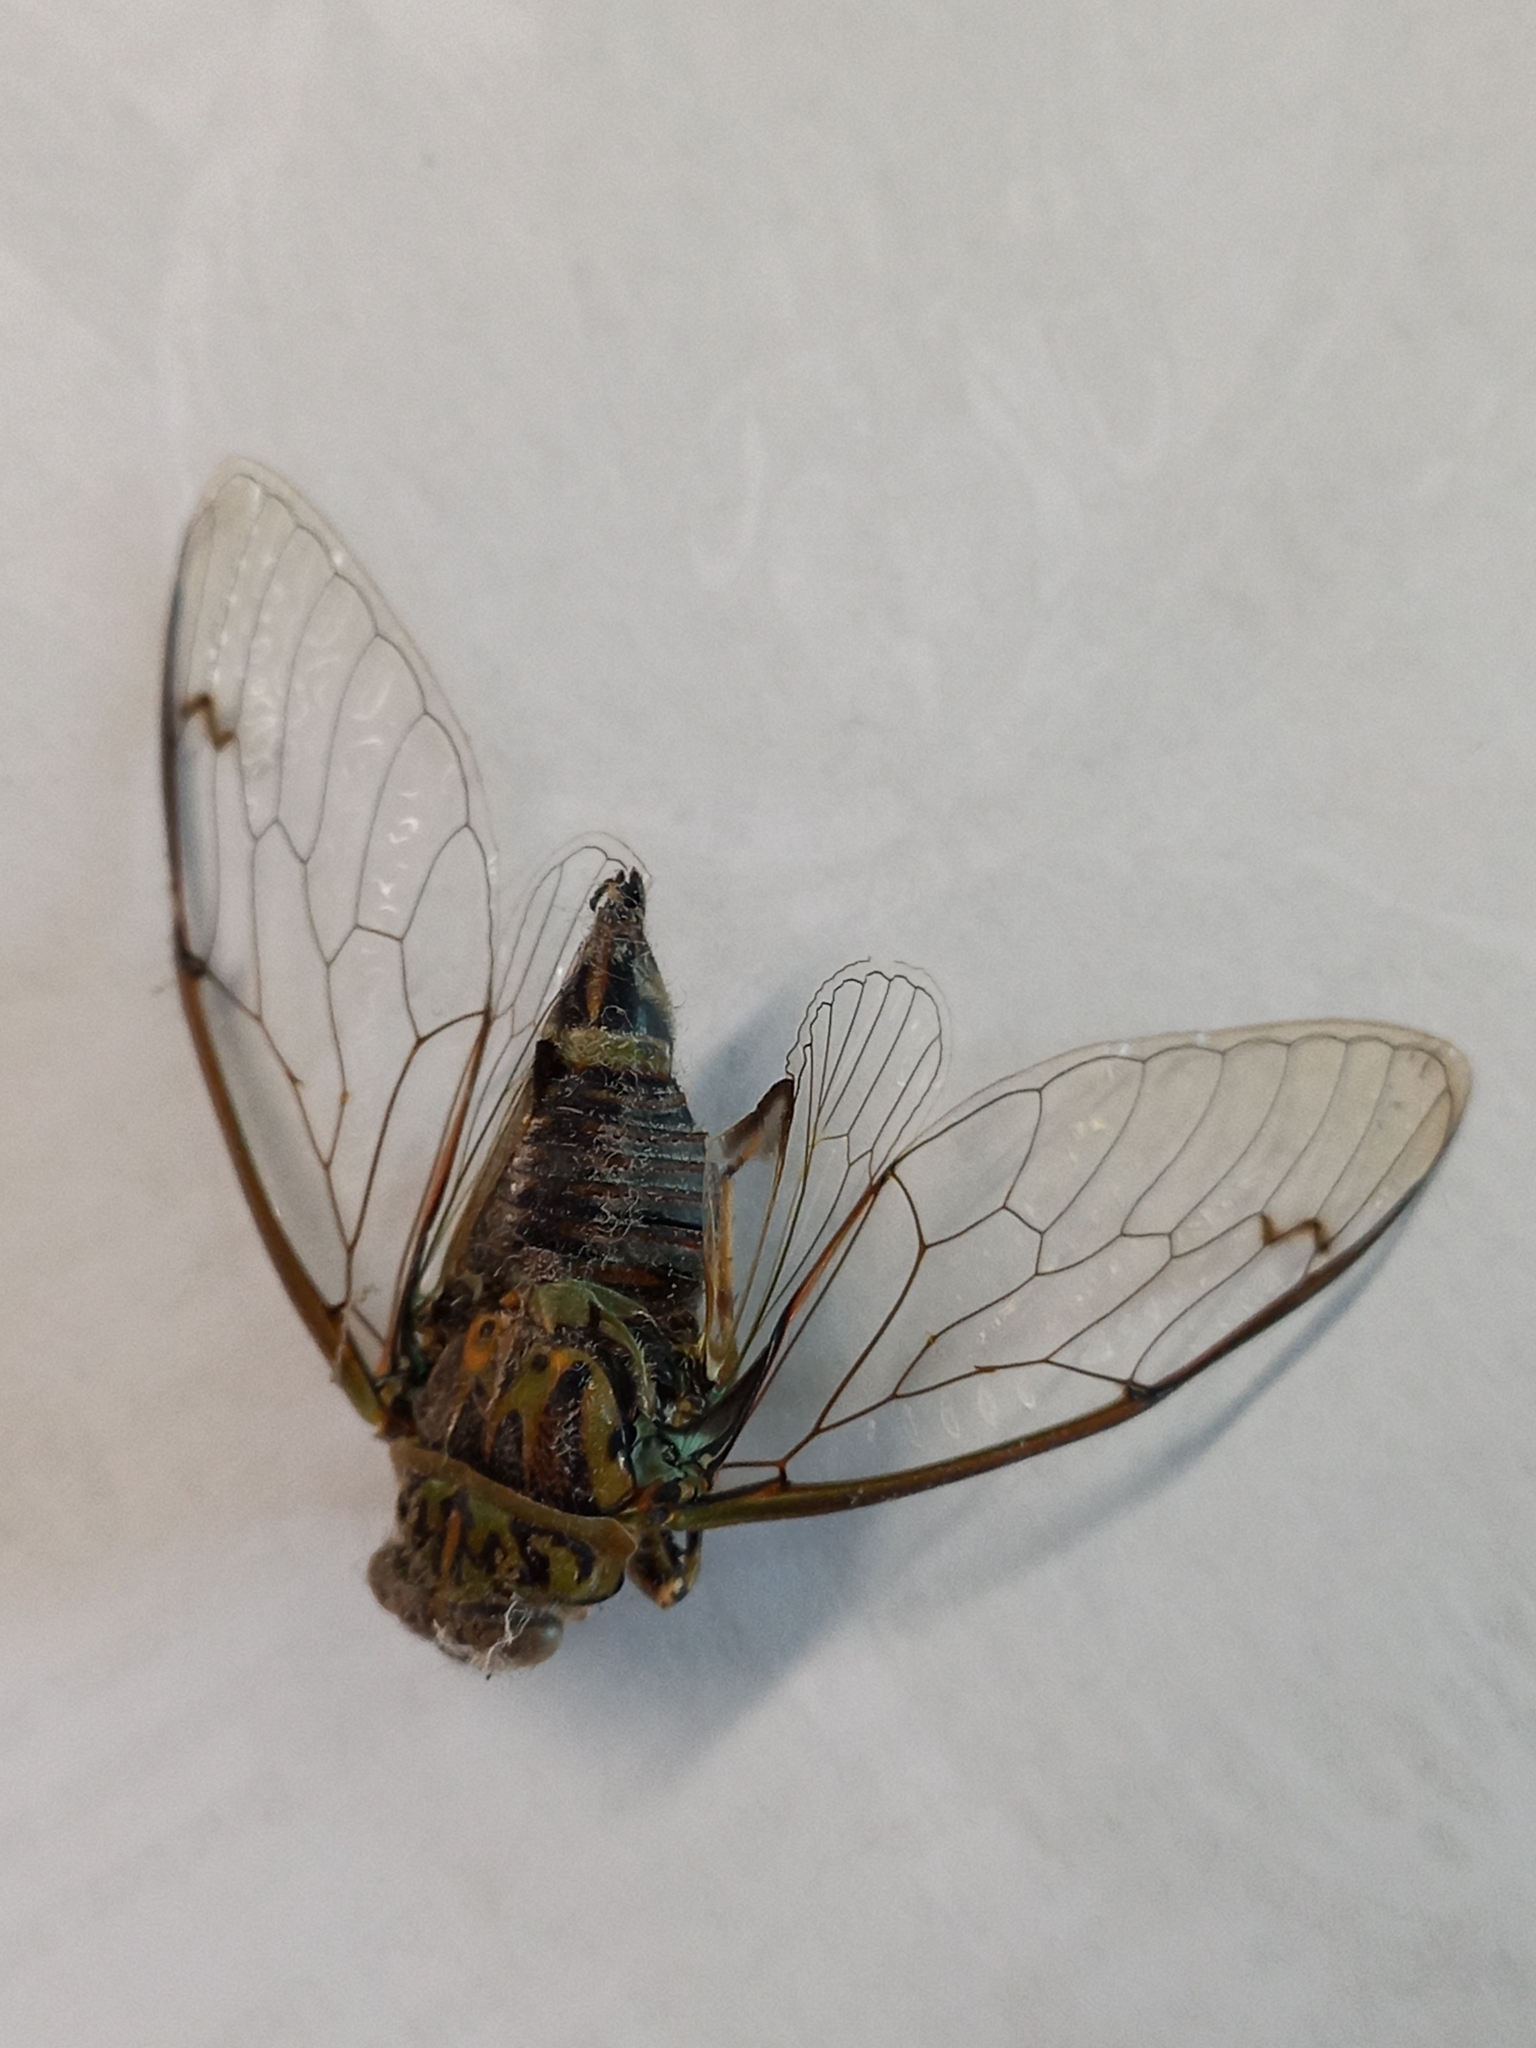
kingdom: Animalia
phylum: Arthropoda
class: Insecta
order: Hemiptera
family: Cicadidae
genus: Amphipsalta
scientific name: Amphipsalta zelandica
